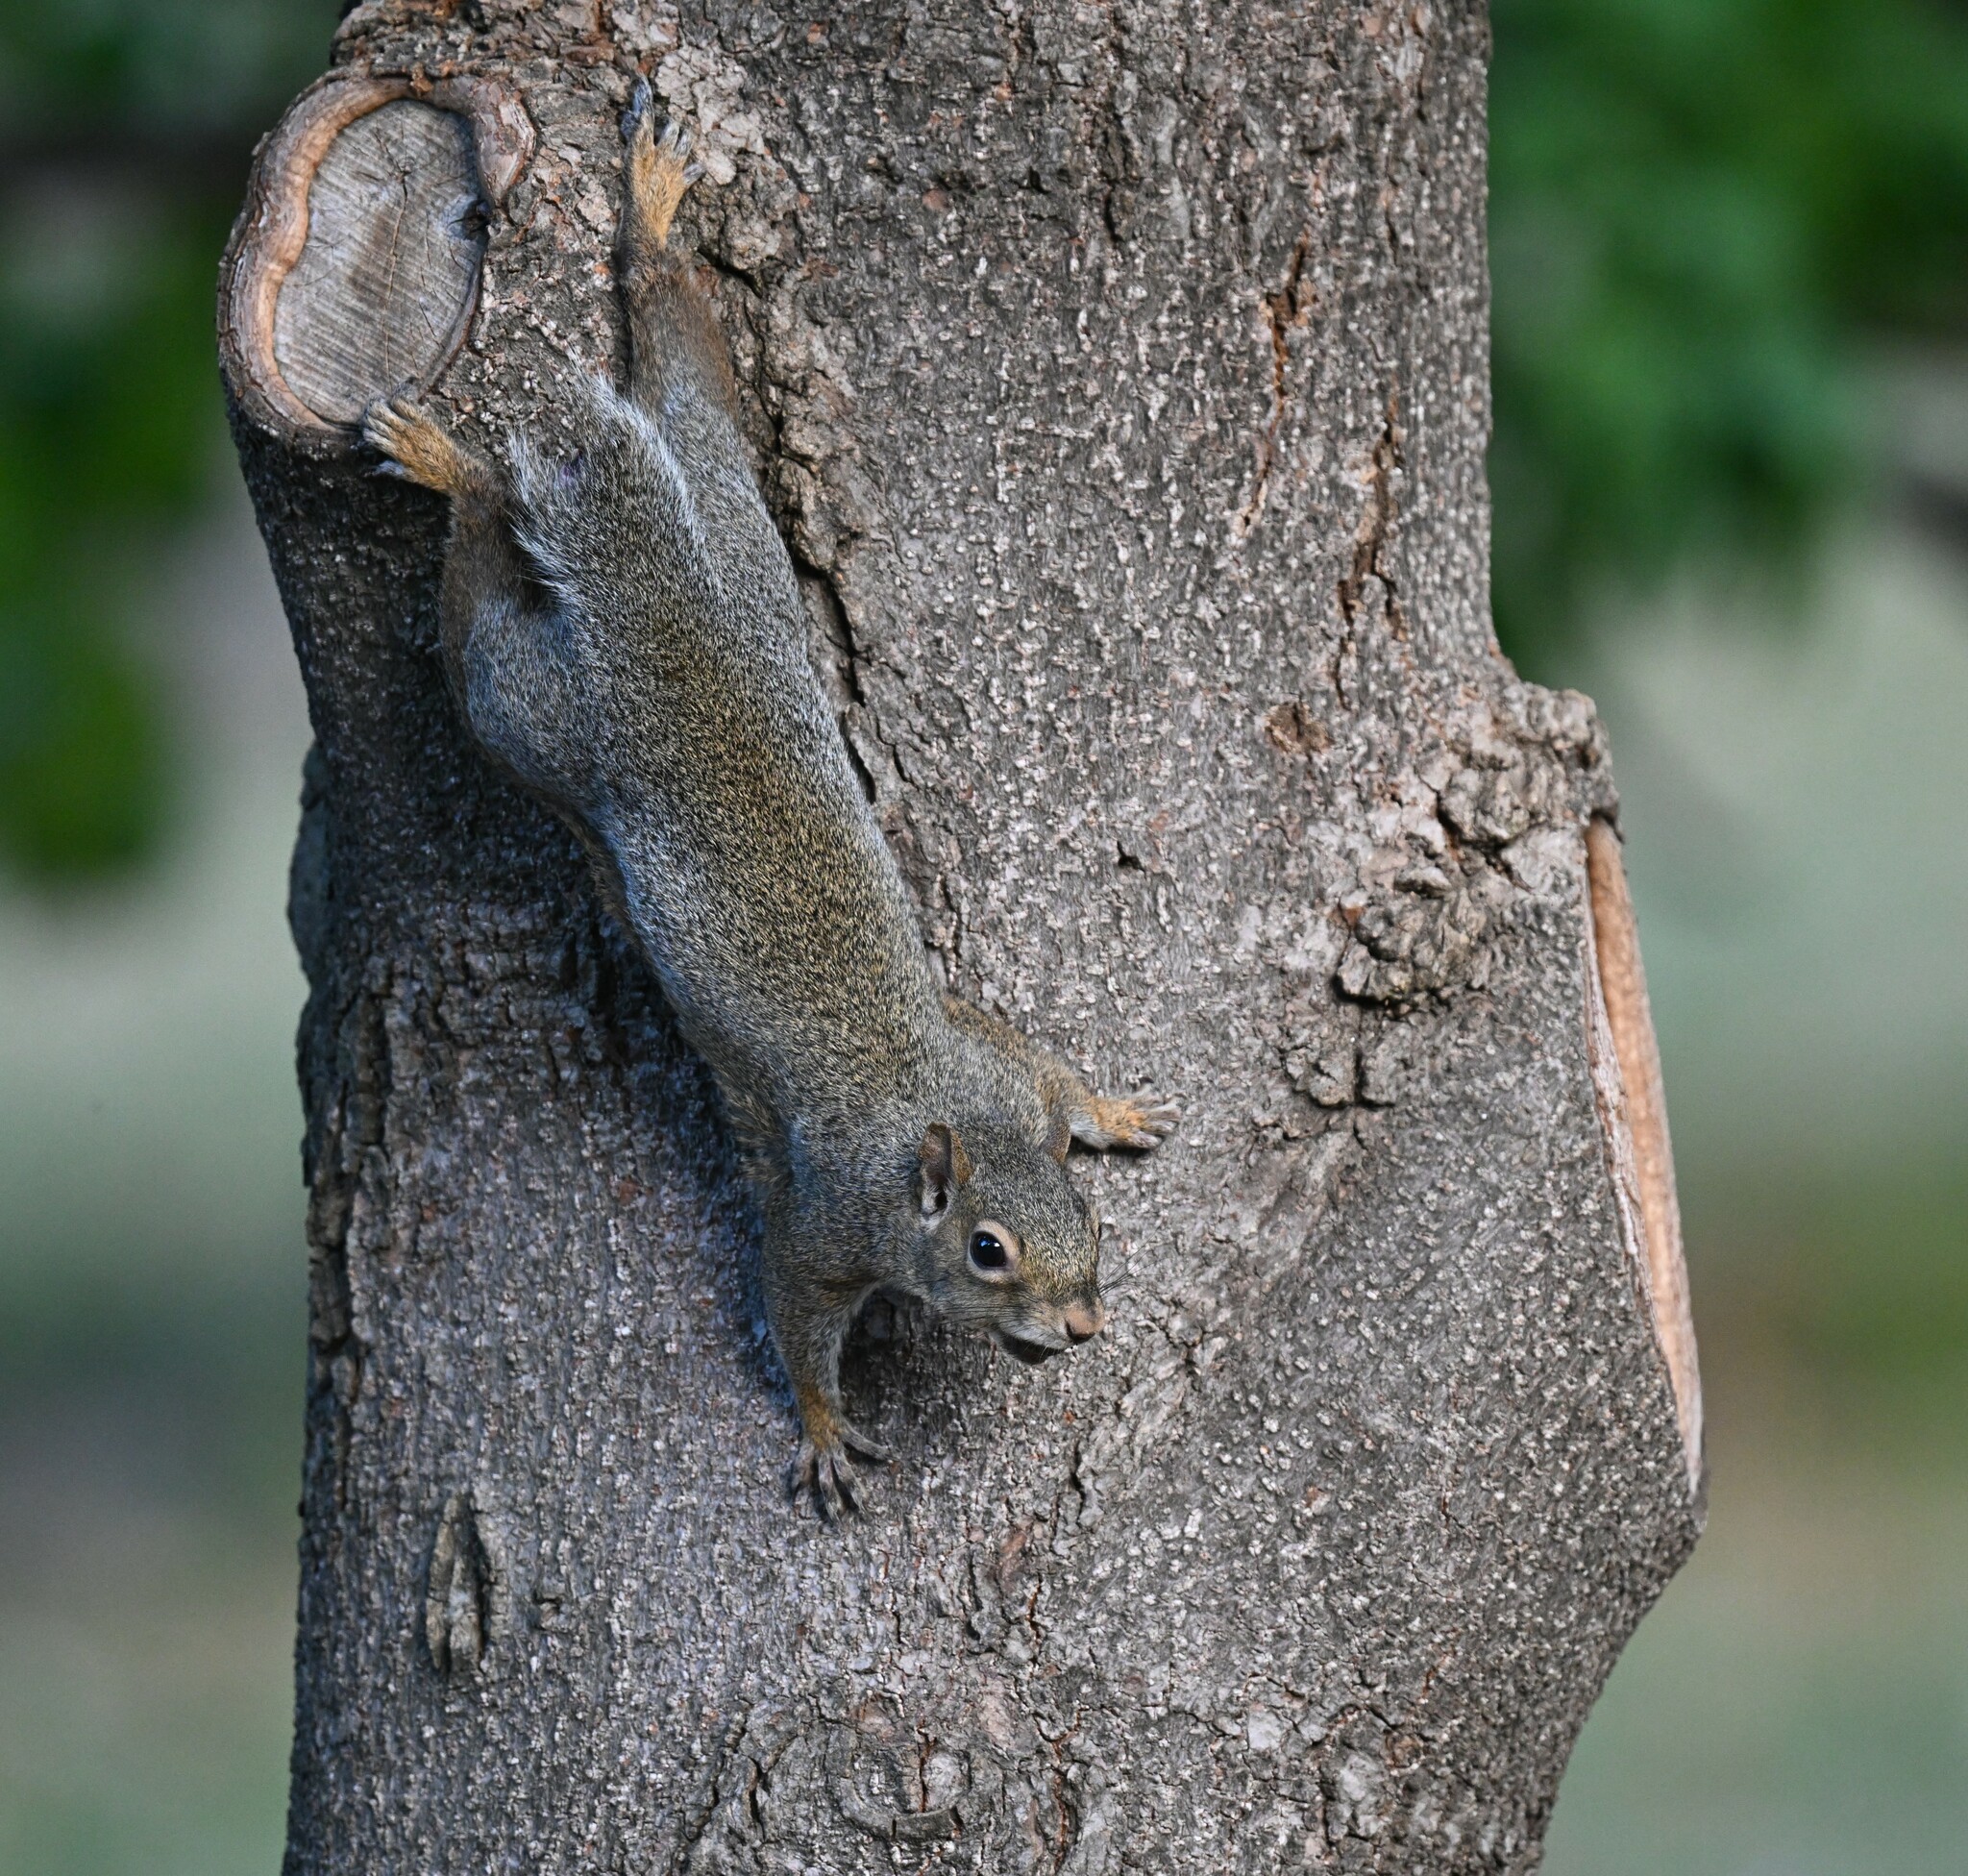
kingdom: Animalia
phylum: Chordata
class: Mammalia
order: Rodentia
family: Sciuridae
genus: Sciurus
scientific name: Sciurus carolinensis
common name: Eastern gray squirrel
